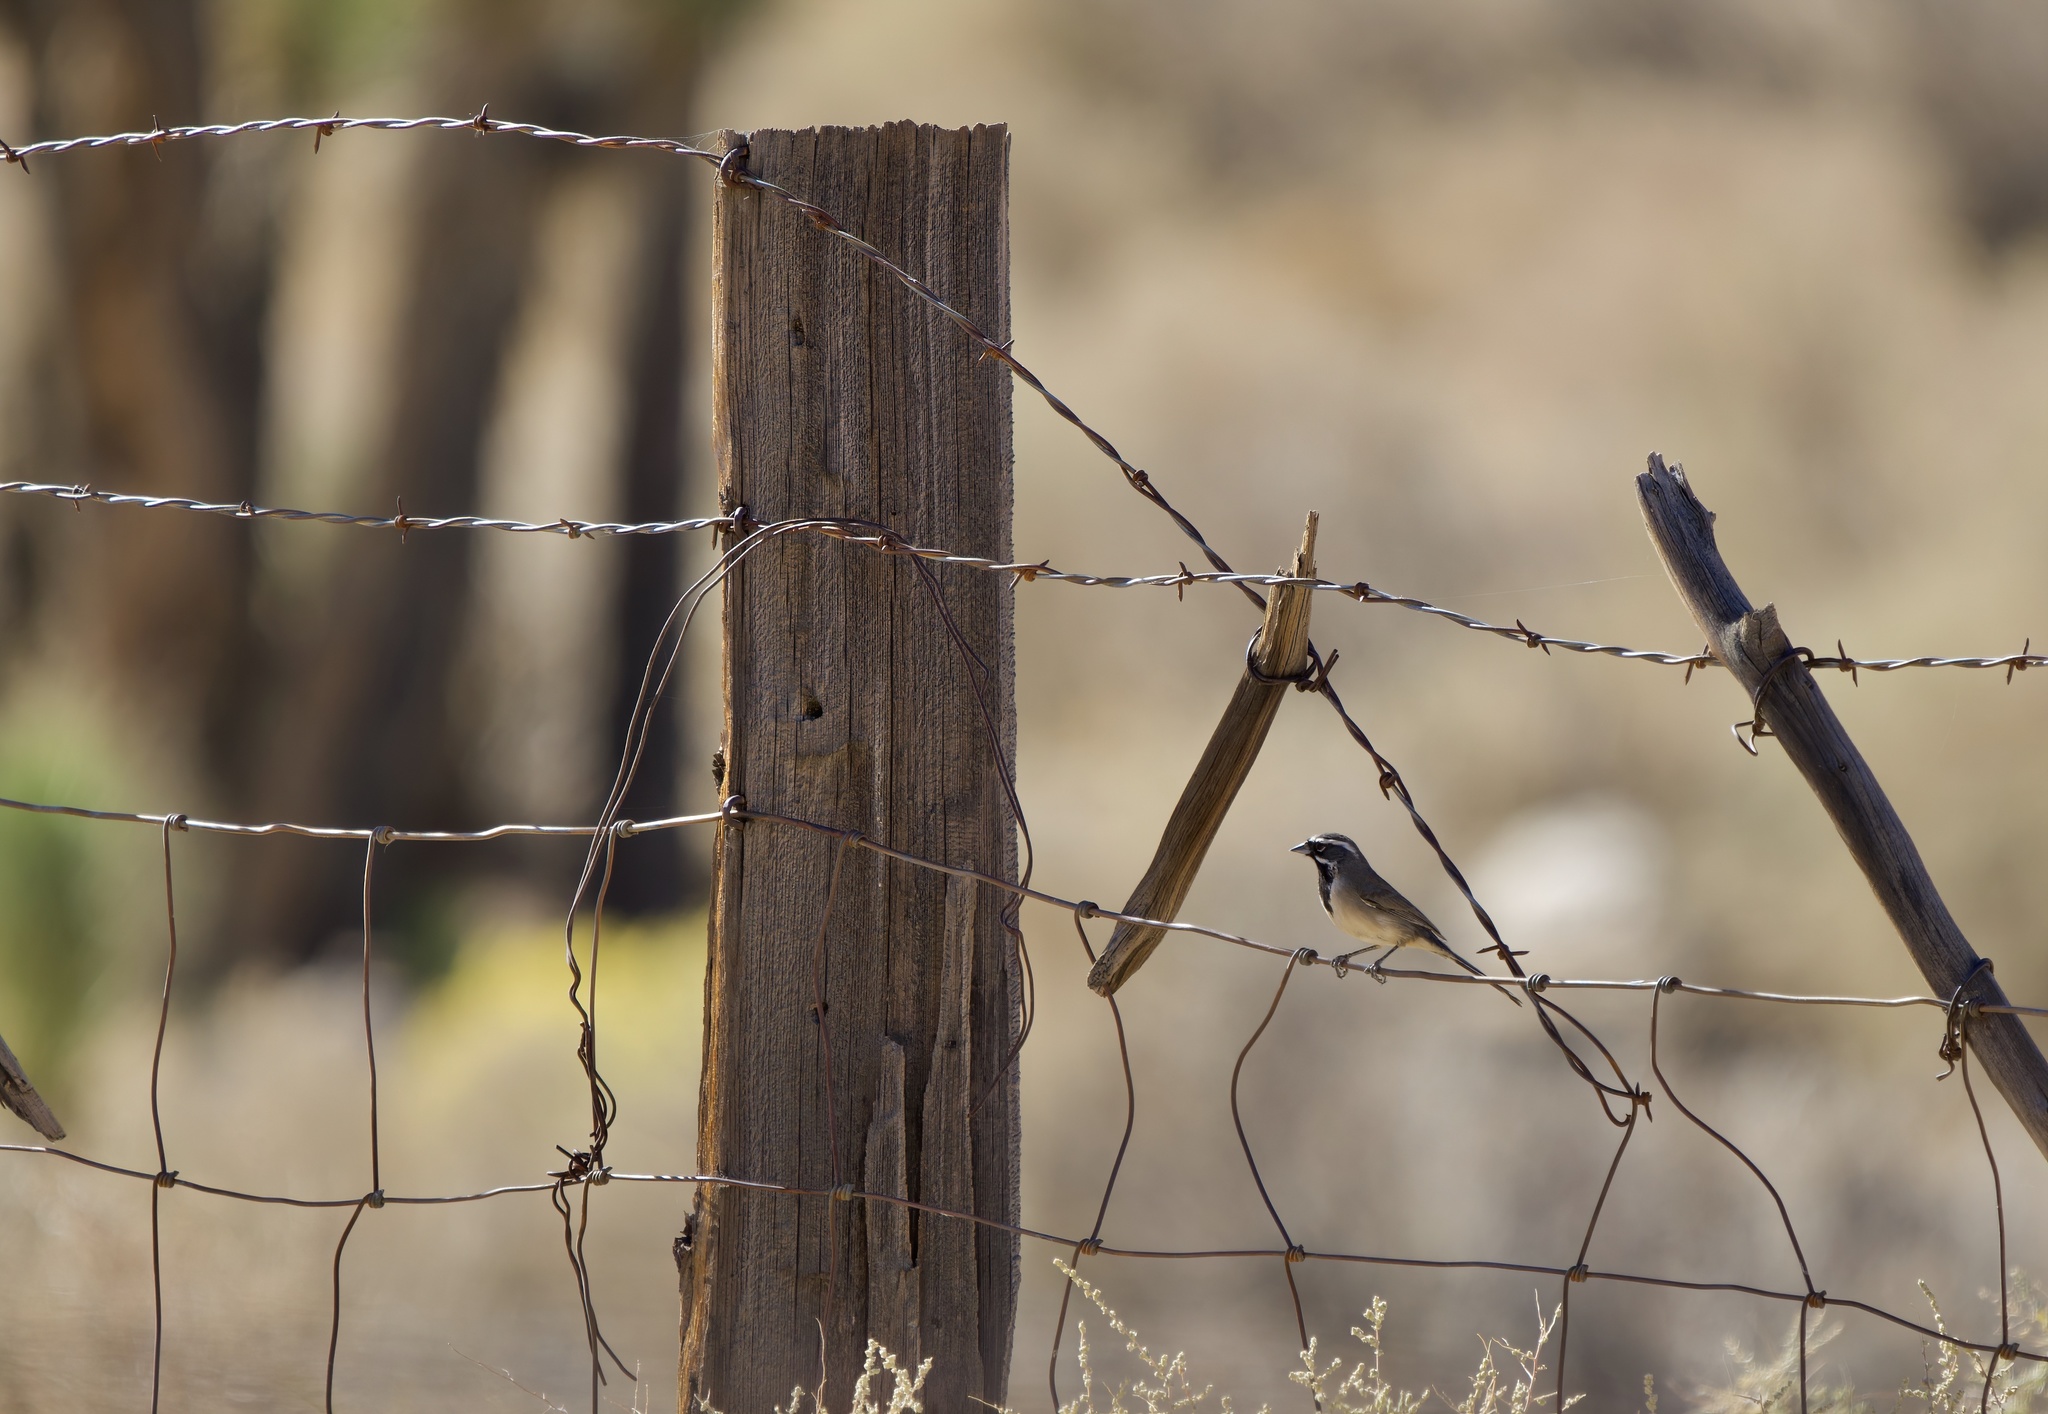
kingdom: Animalia
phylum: Chordata
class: Aves
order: Passeriformes
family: Passerellidae
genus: Amphispiza
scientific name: Amphispiza bilineata
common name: Black-throated sparrow
